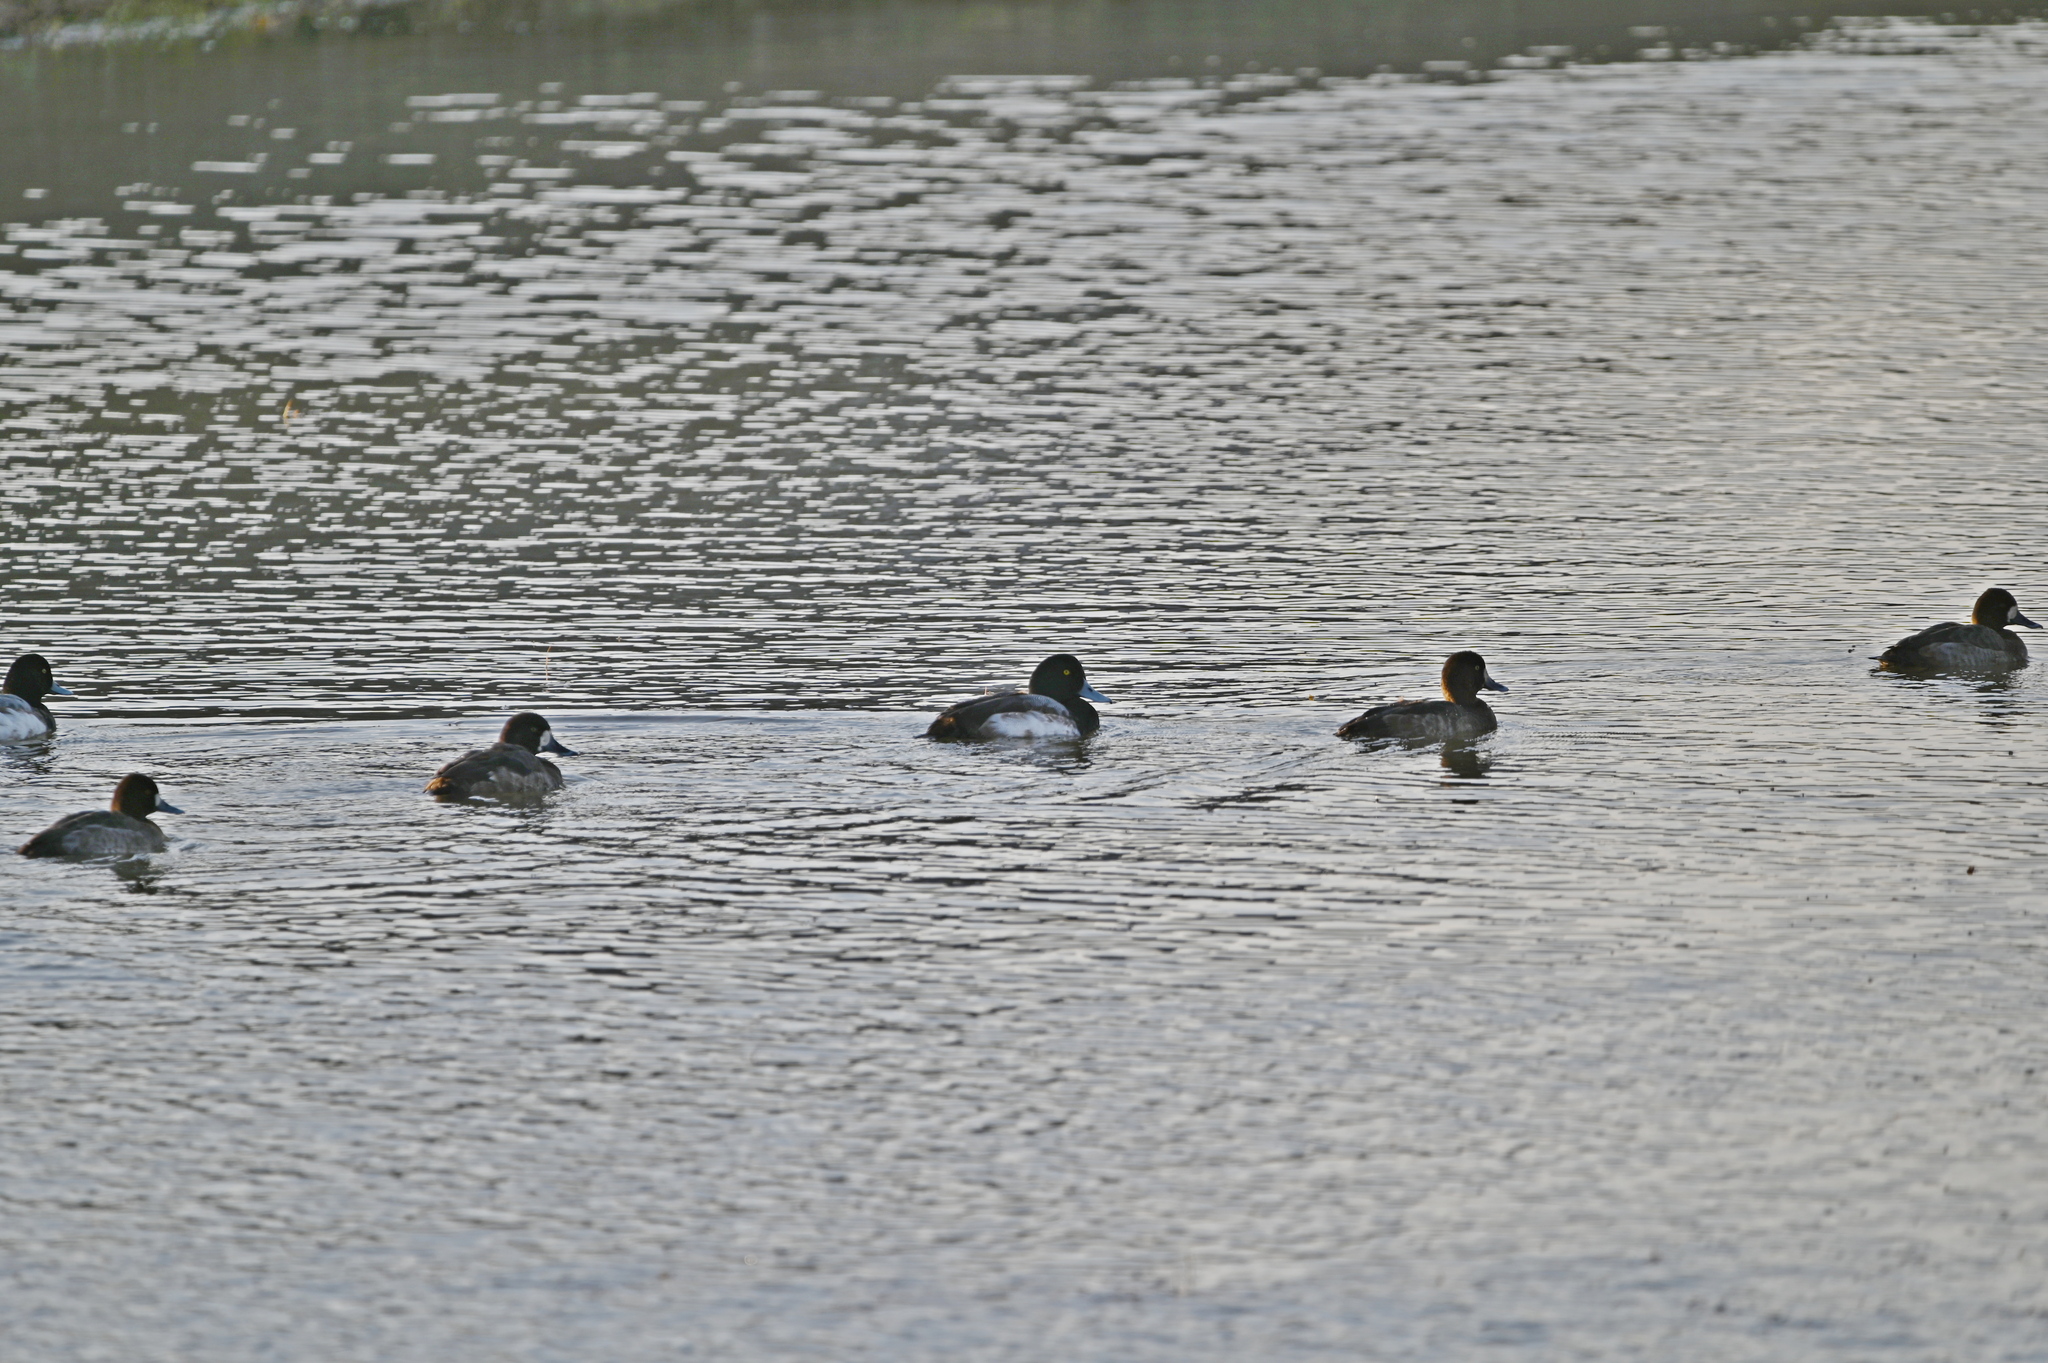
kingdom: Animalia
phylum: Chordata
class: Aves
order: Anseriformes
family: Anatidae
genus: Aythya
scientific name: Aythya marila
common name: Greater scaup
